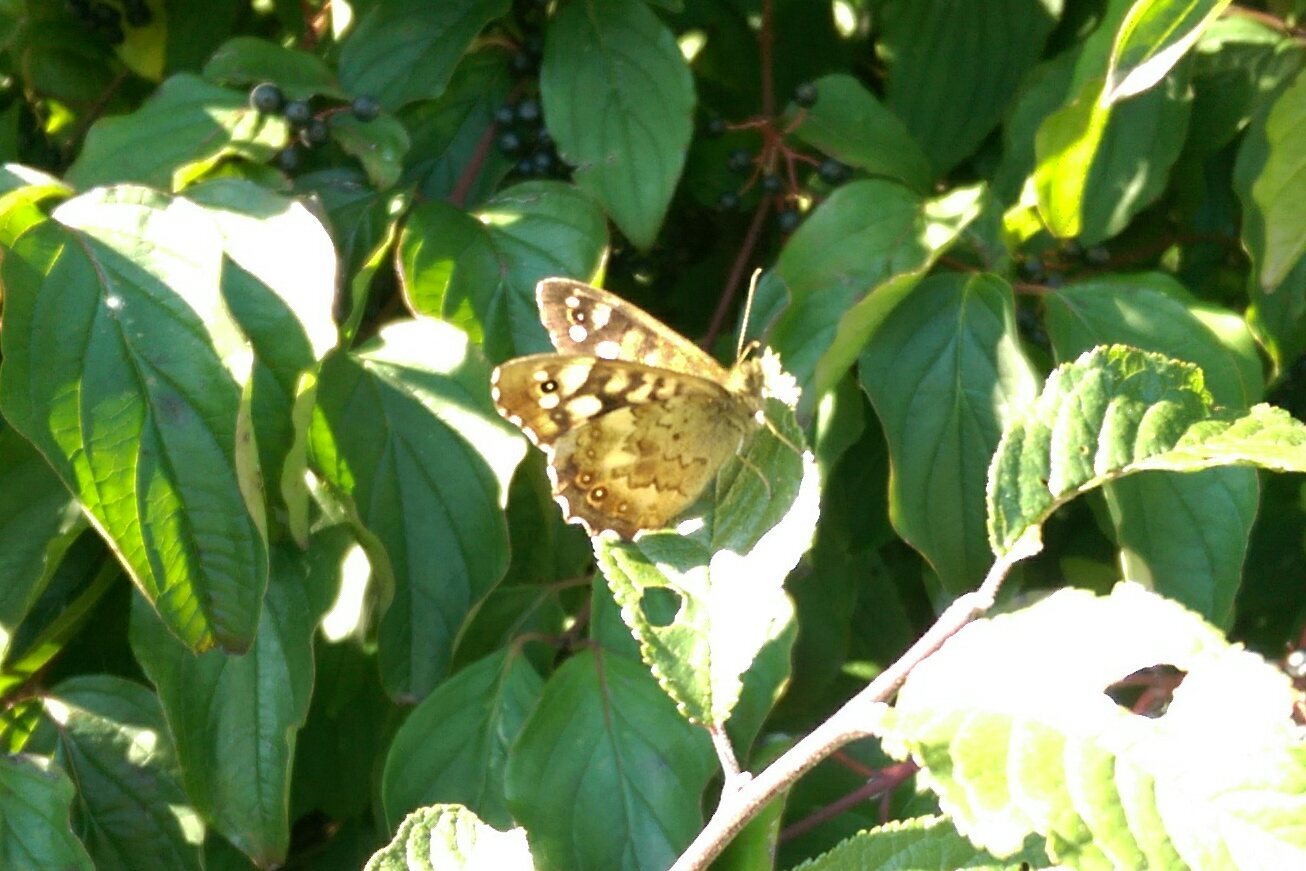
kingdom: Animalia
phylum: Arthropoda
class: Insecta
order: Lepidoptera
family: Nymphalidae
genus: Pararge
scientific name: Pararge aegeria
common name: Speckled wood
